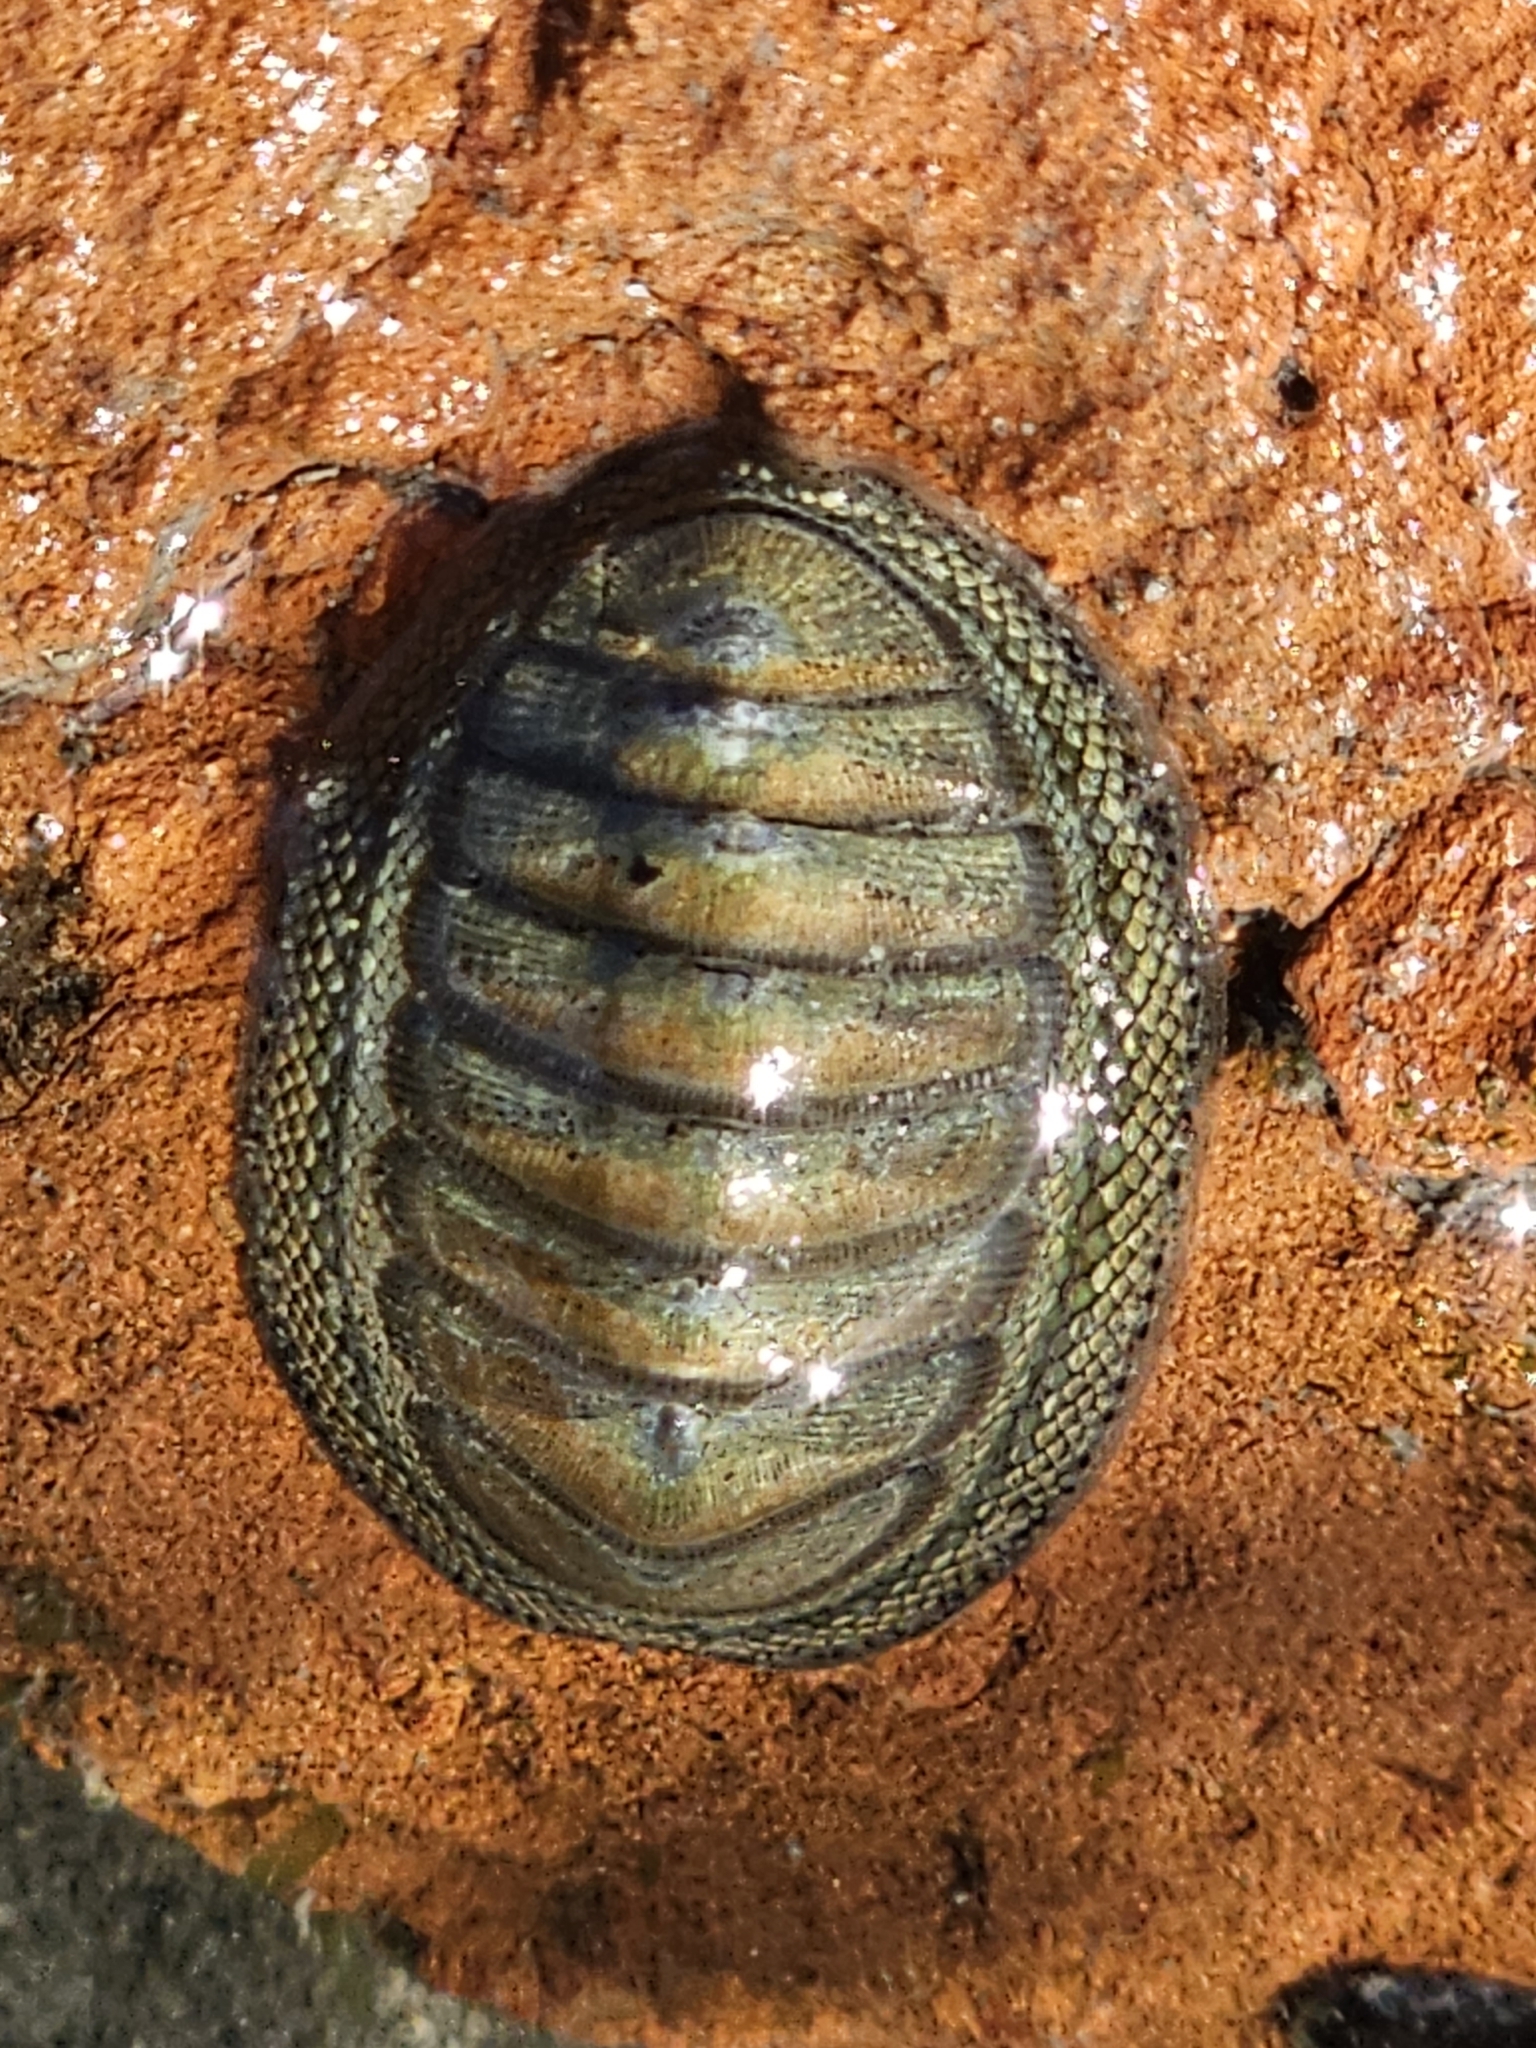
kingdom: Animalia
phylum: Mollusca
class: Polyplacophora
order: Chitonida
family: Chitonidae
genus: Chiton
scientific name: Chiton glaucus
